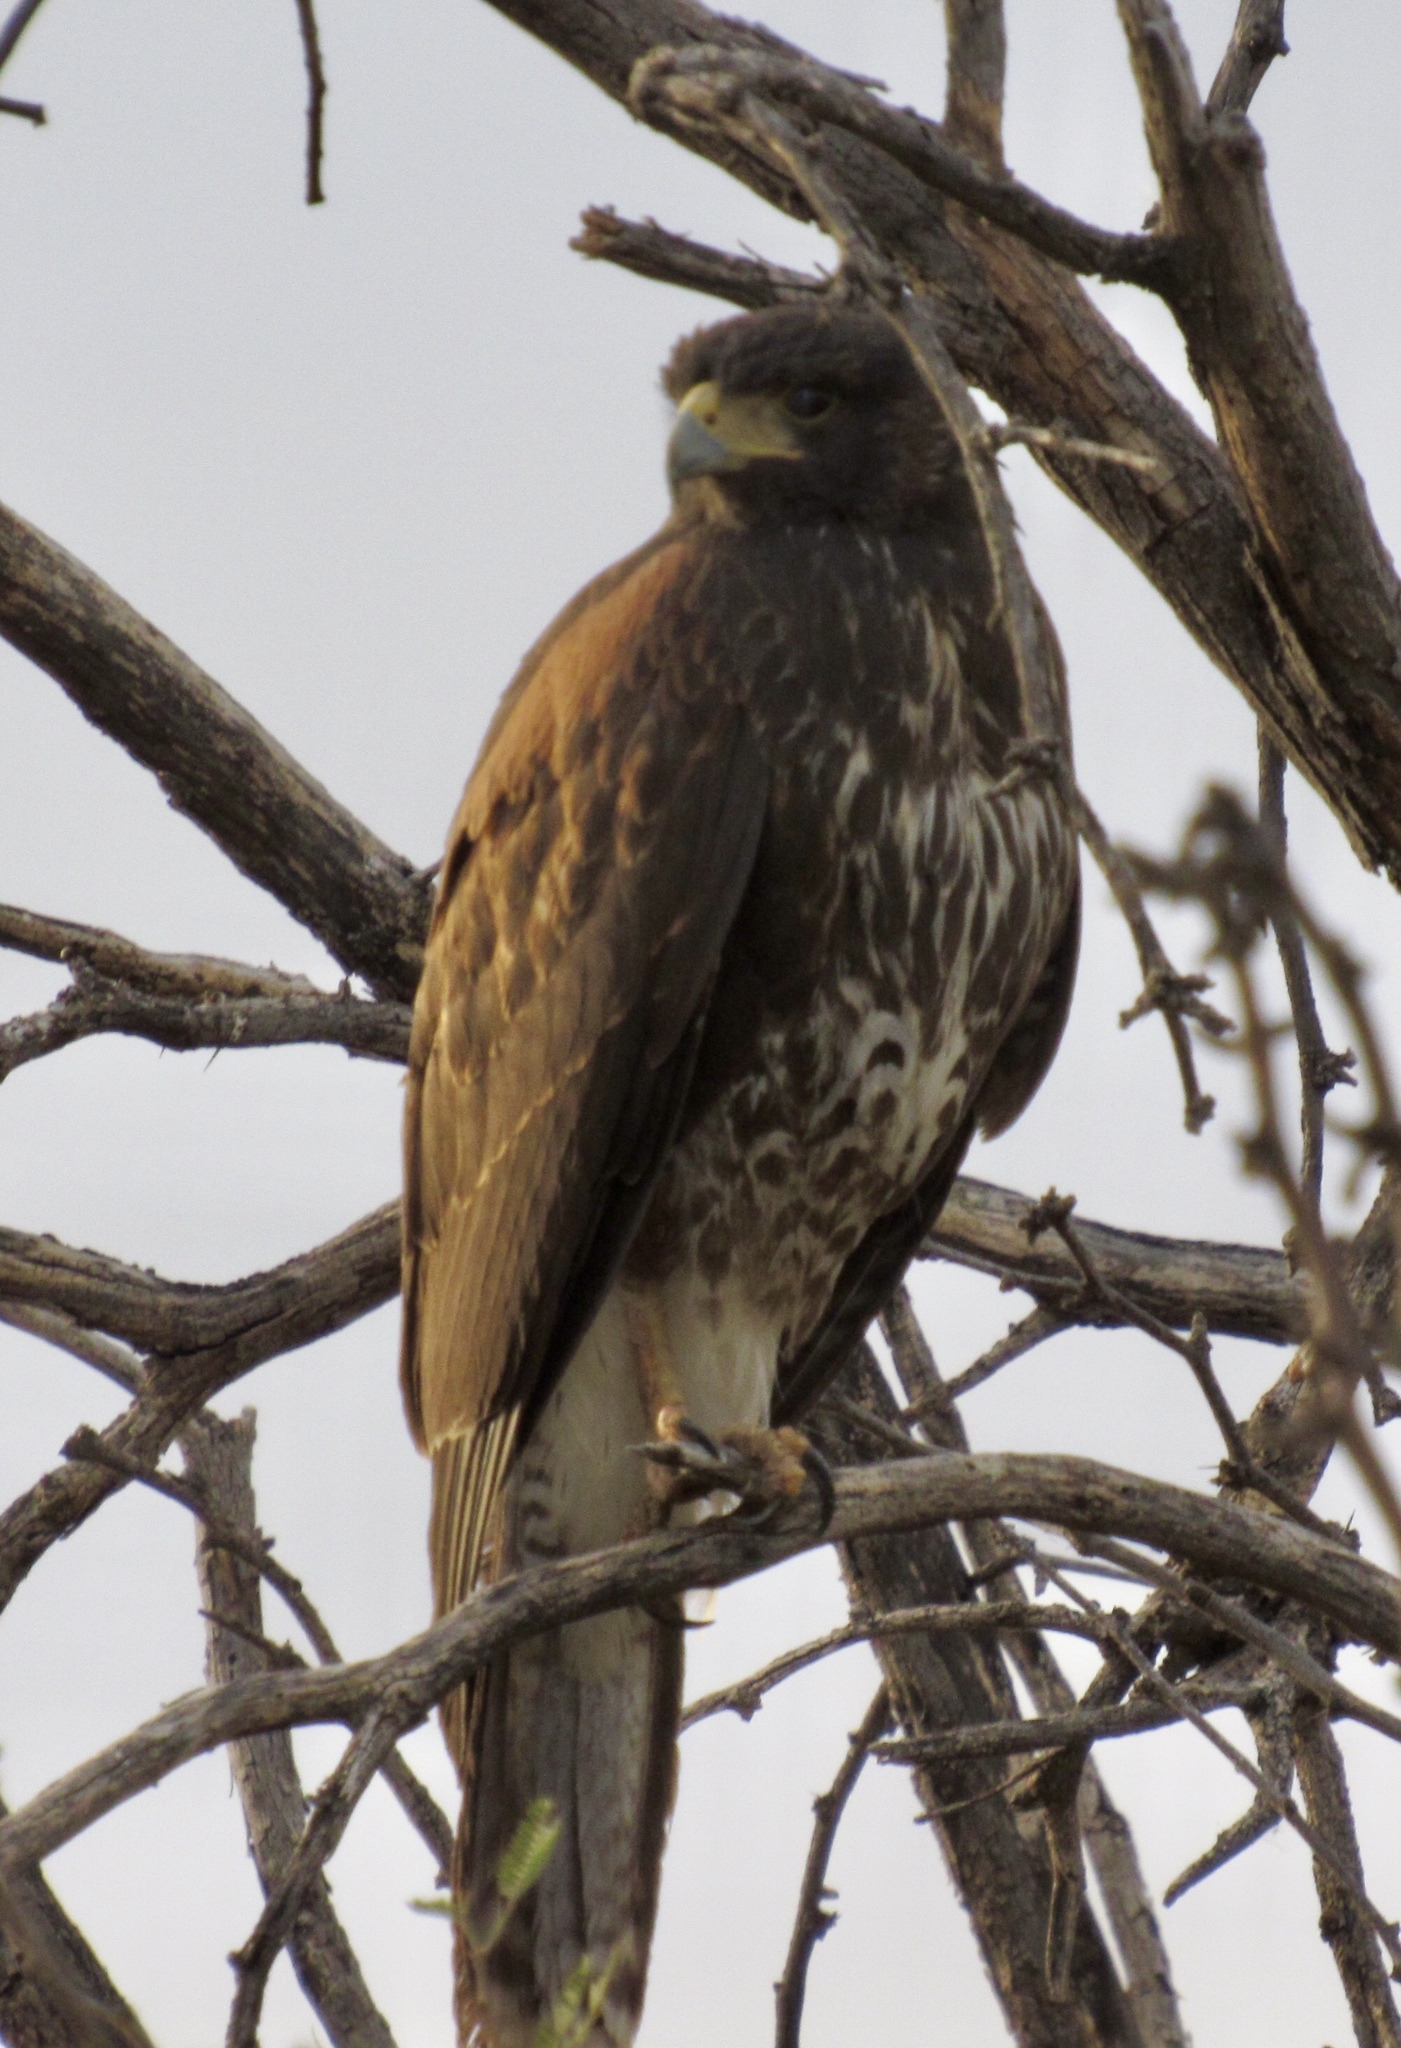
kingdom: Animalia
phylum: Chordata
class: Aves
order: Accipitriformes
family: Accipitridae
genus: Parabuteo
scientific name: Parabuteo unicinctus
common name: Harris's hawk
